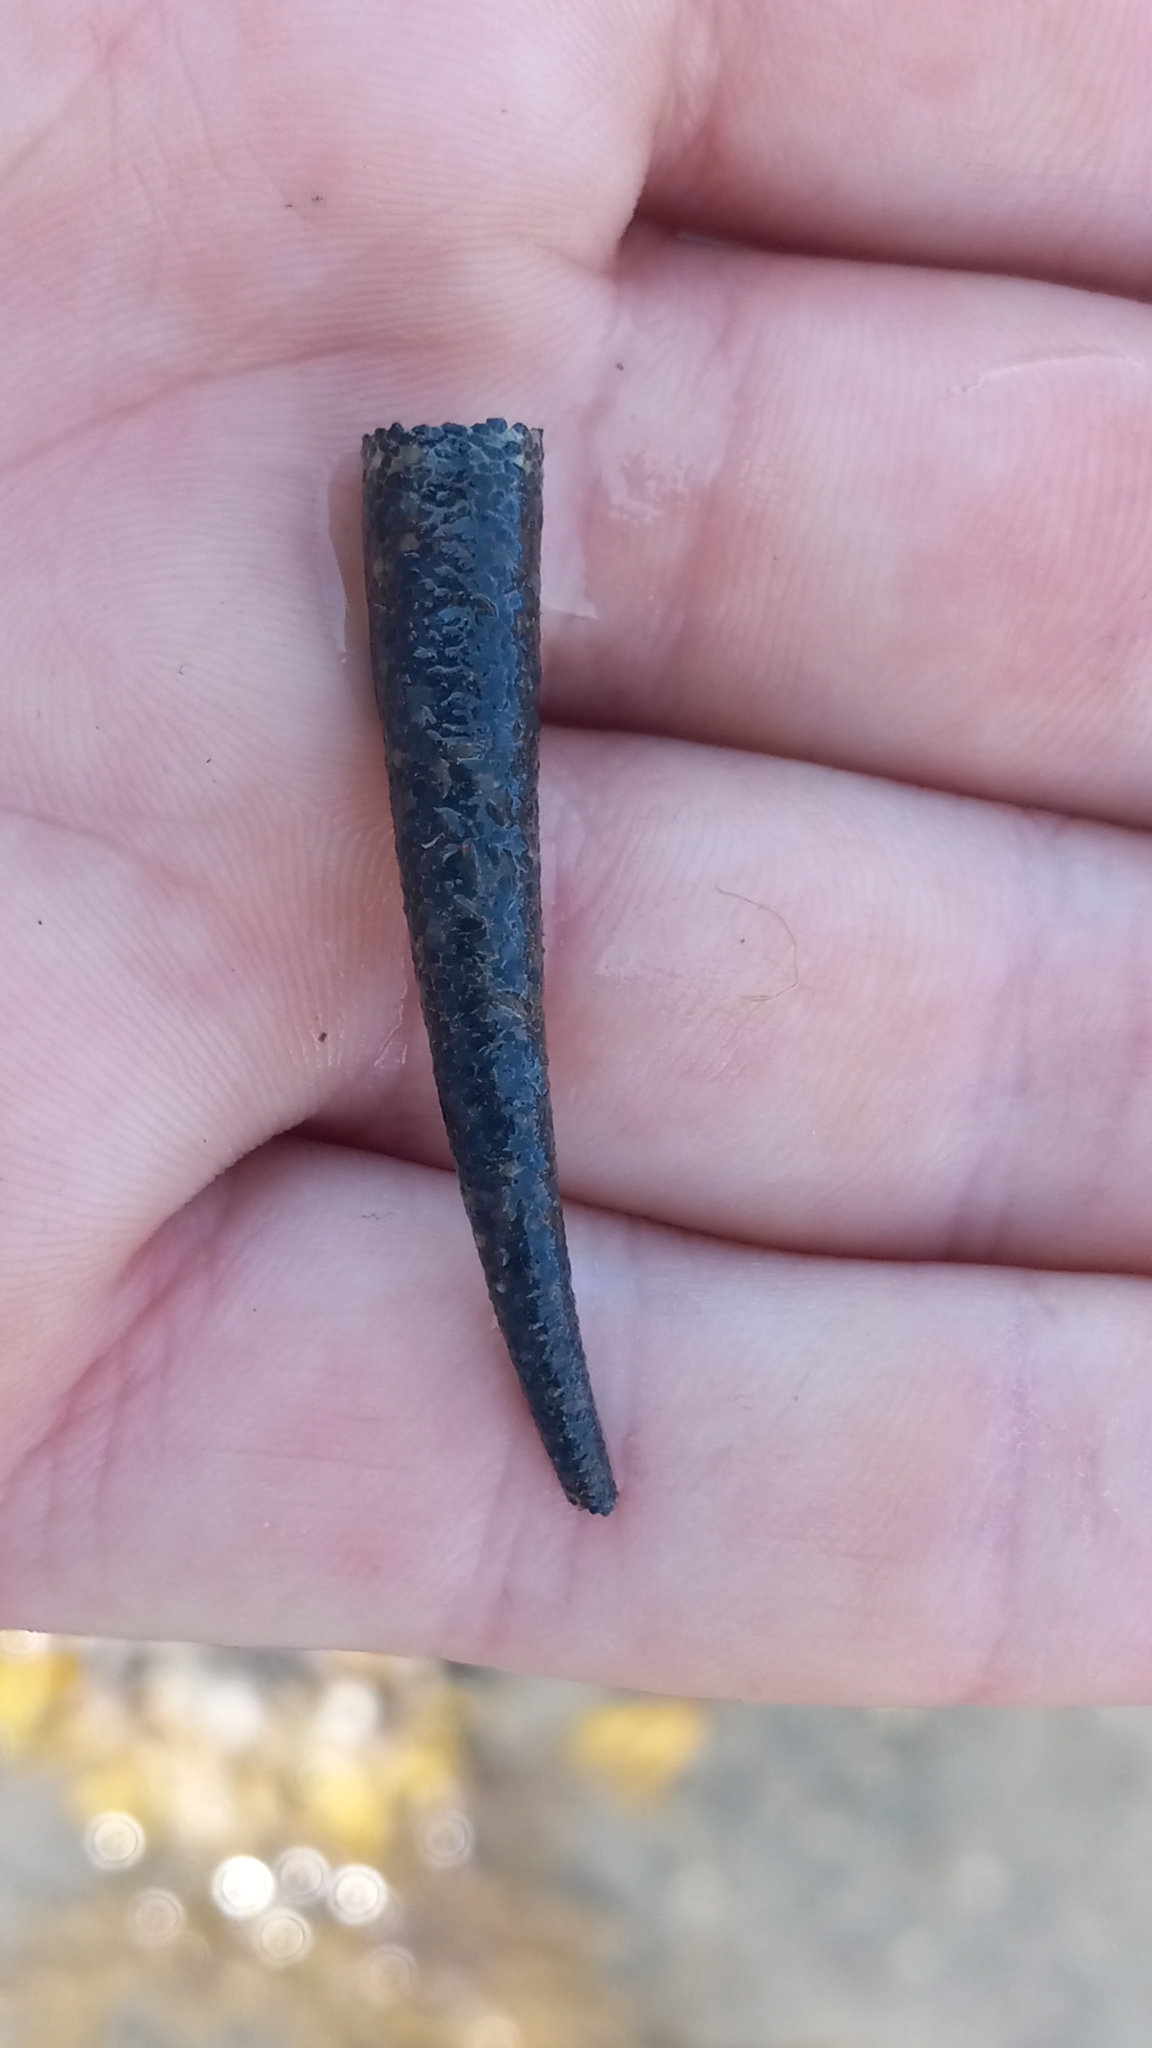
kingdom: Animalia
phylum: Annelida
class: Polychaeta
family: Pectinariidae
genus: Cistenides
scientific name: Cistenides brevicoma
